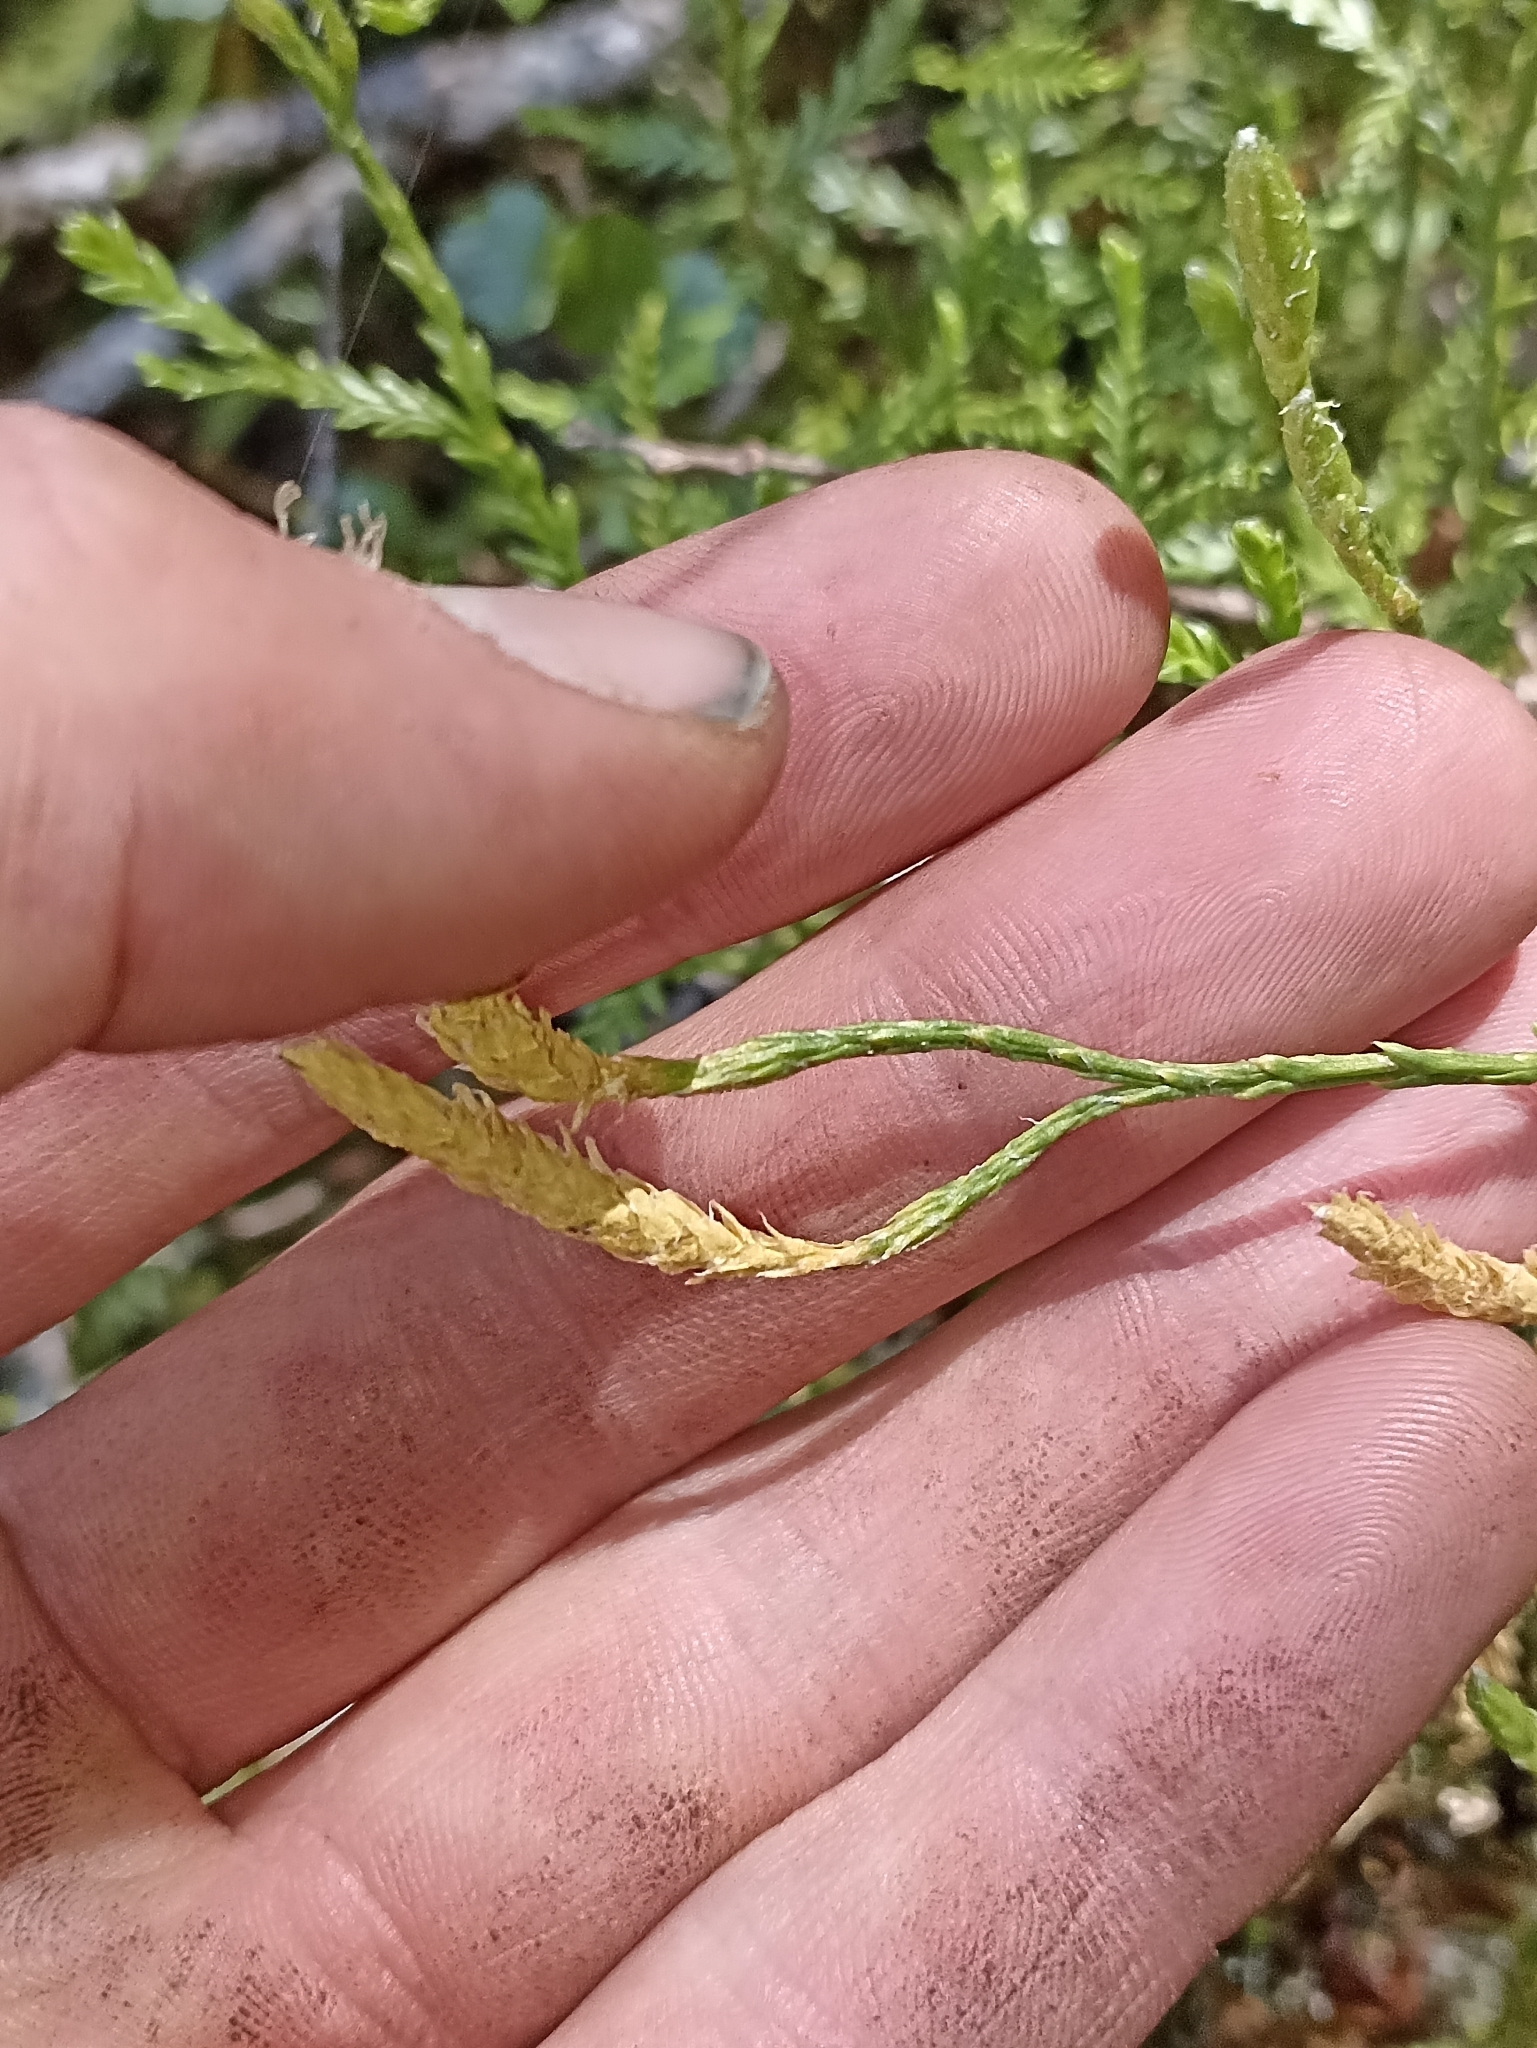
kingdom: Plantae
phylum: Tracheophyta
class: Lycopodiopsida
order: Lycopodiales
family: Lycopodiaceae
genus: Diphasium
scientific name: Diphasium scariosum
